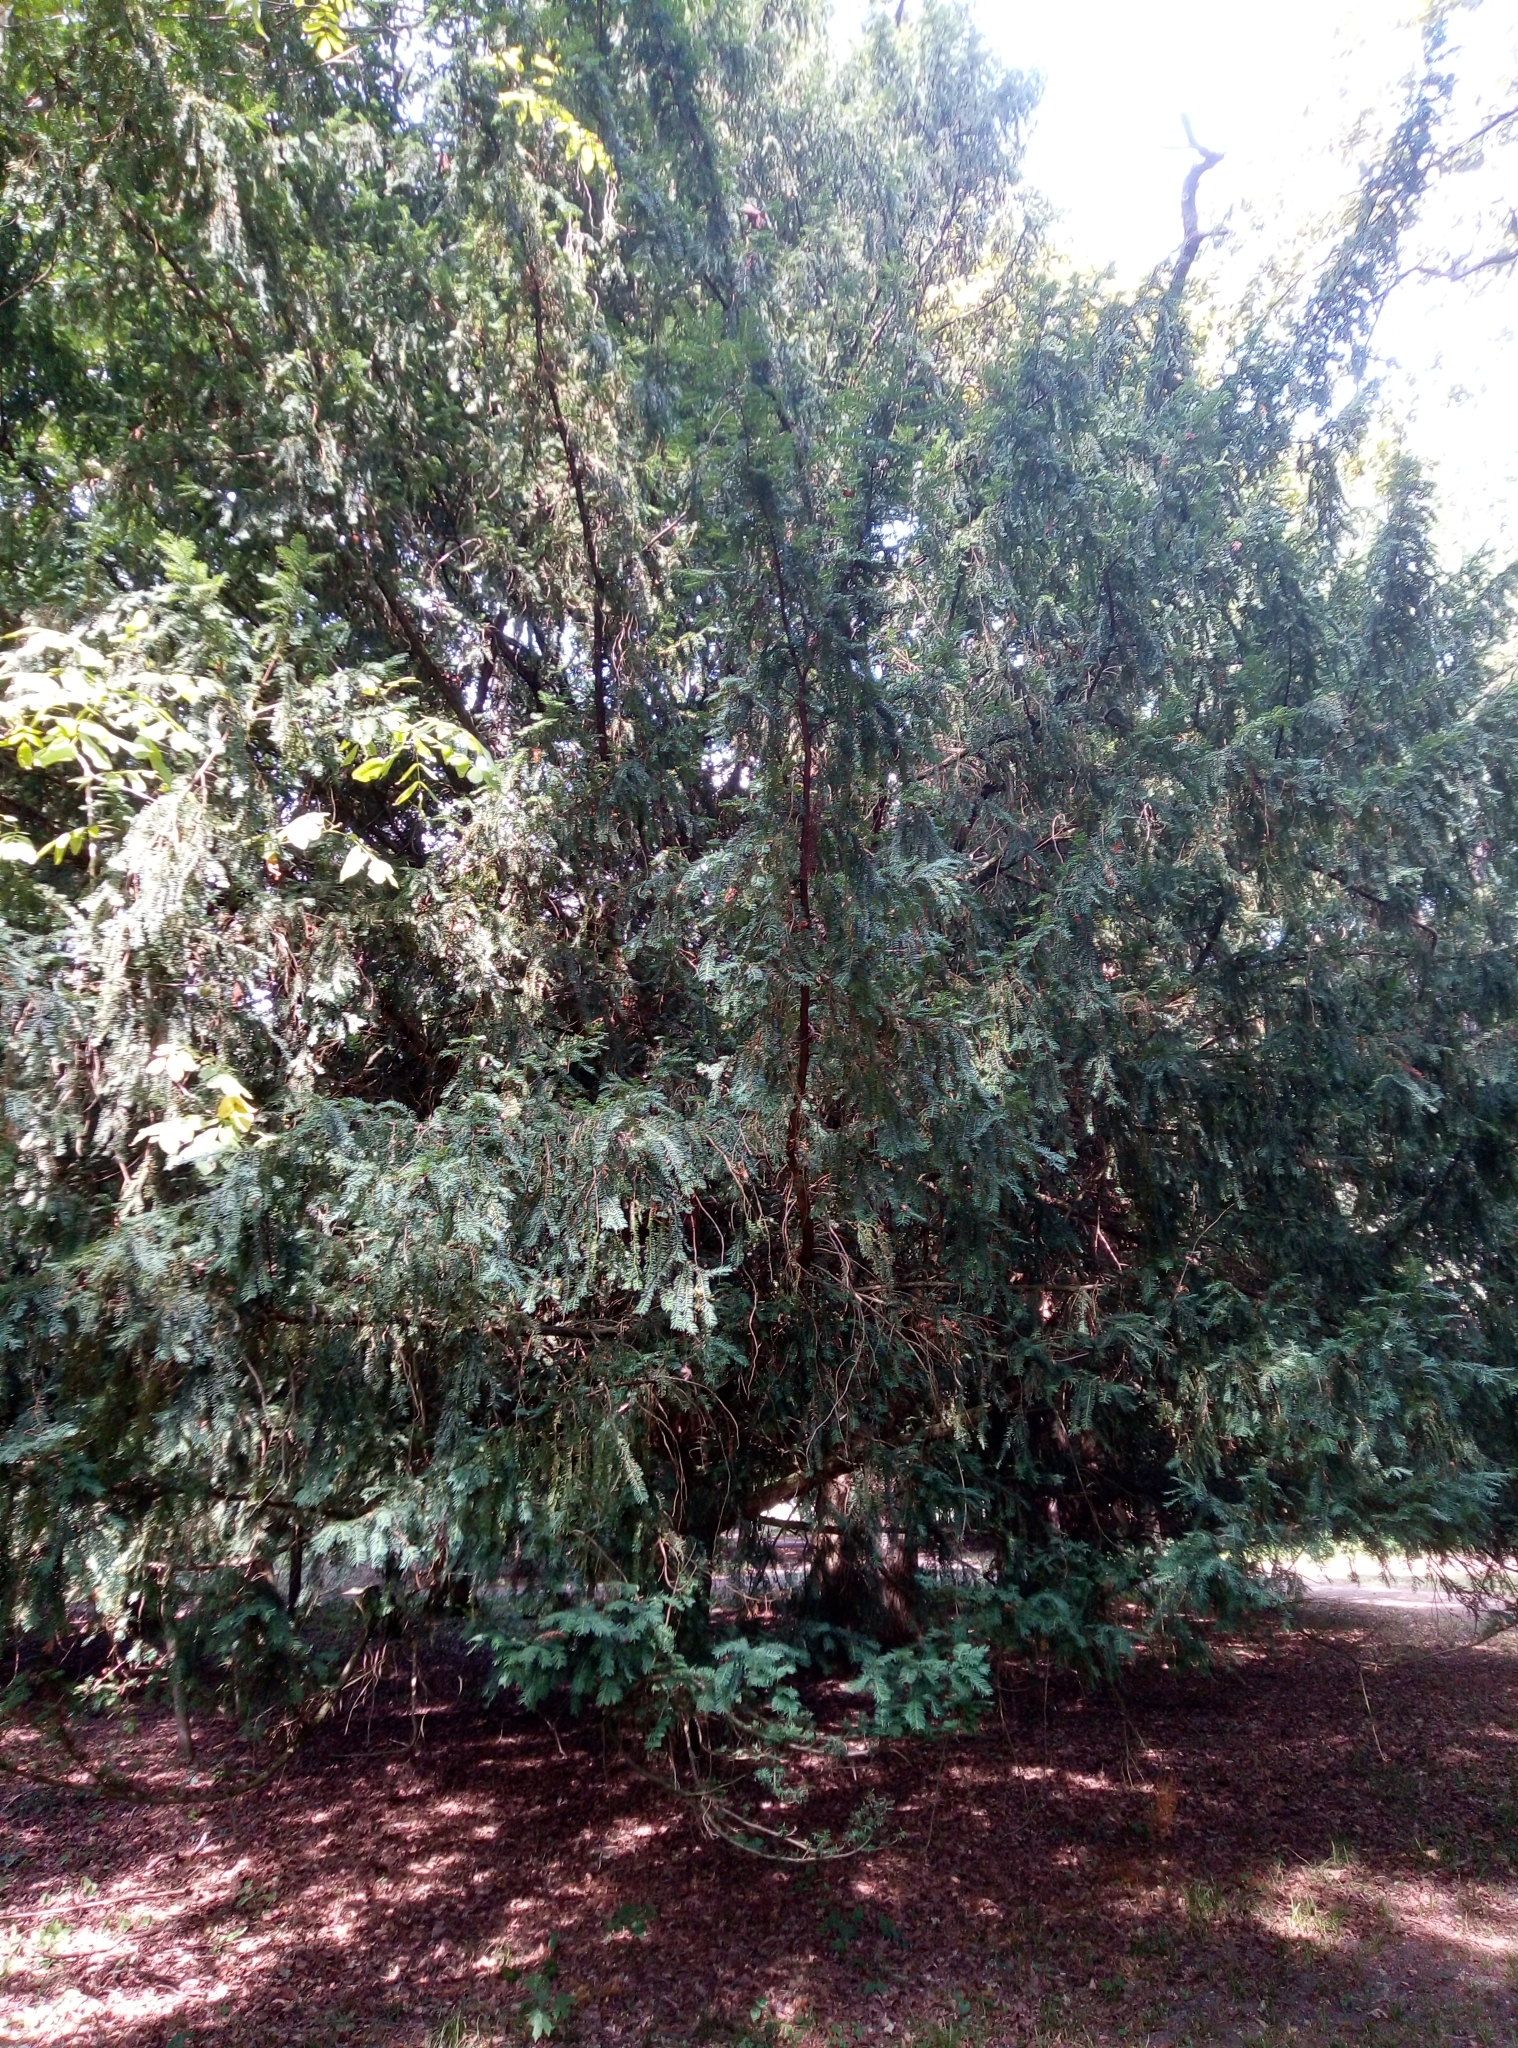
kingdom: Plantae
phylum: Tracheophyta
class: Pinopsida
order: Pinales
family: Taxaceae
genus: Taxus
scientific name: Taxus baccata
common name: Yew
